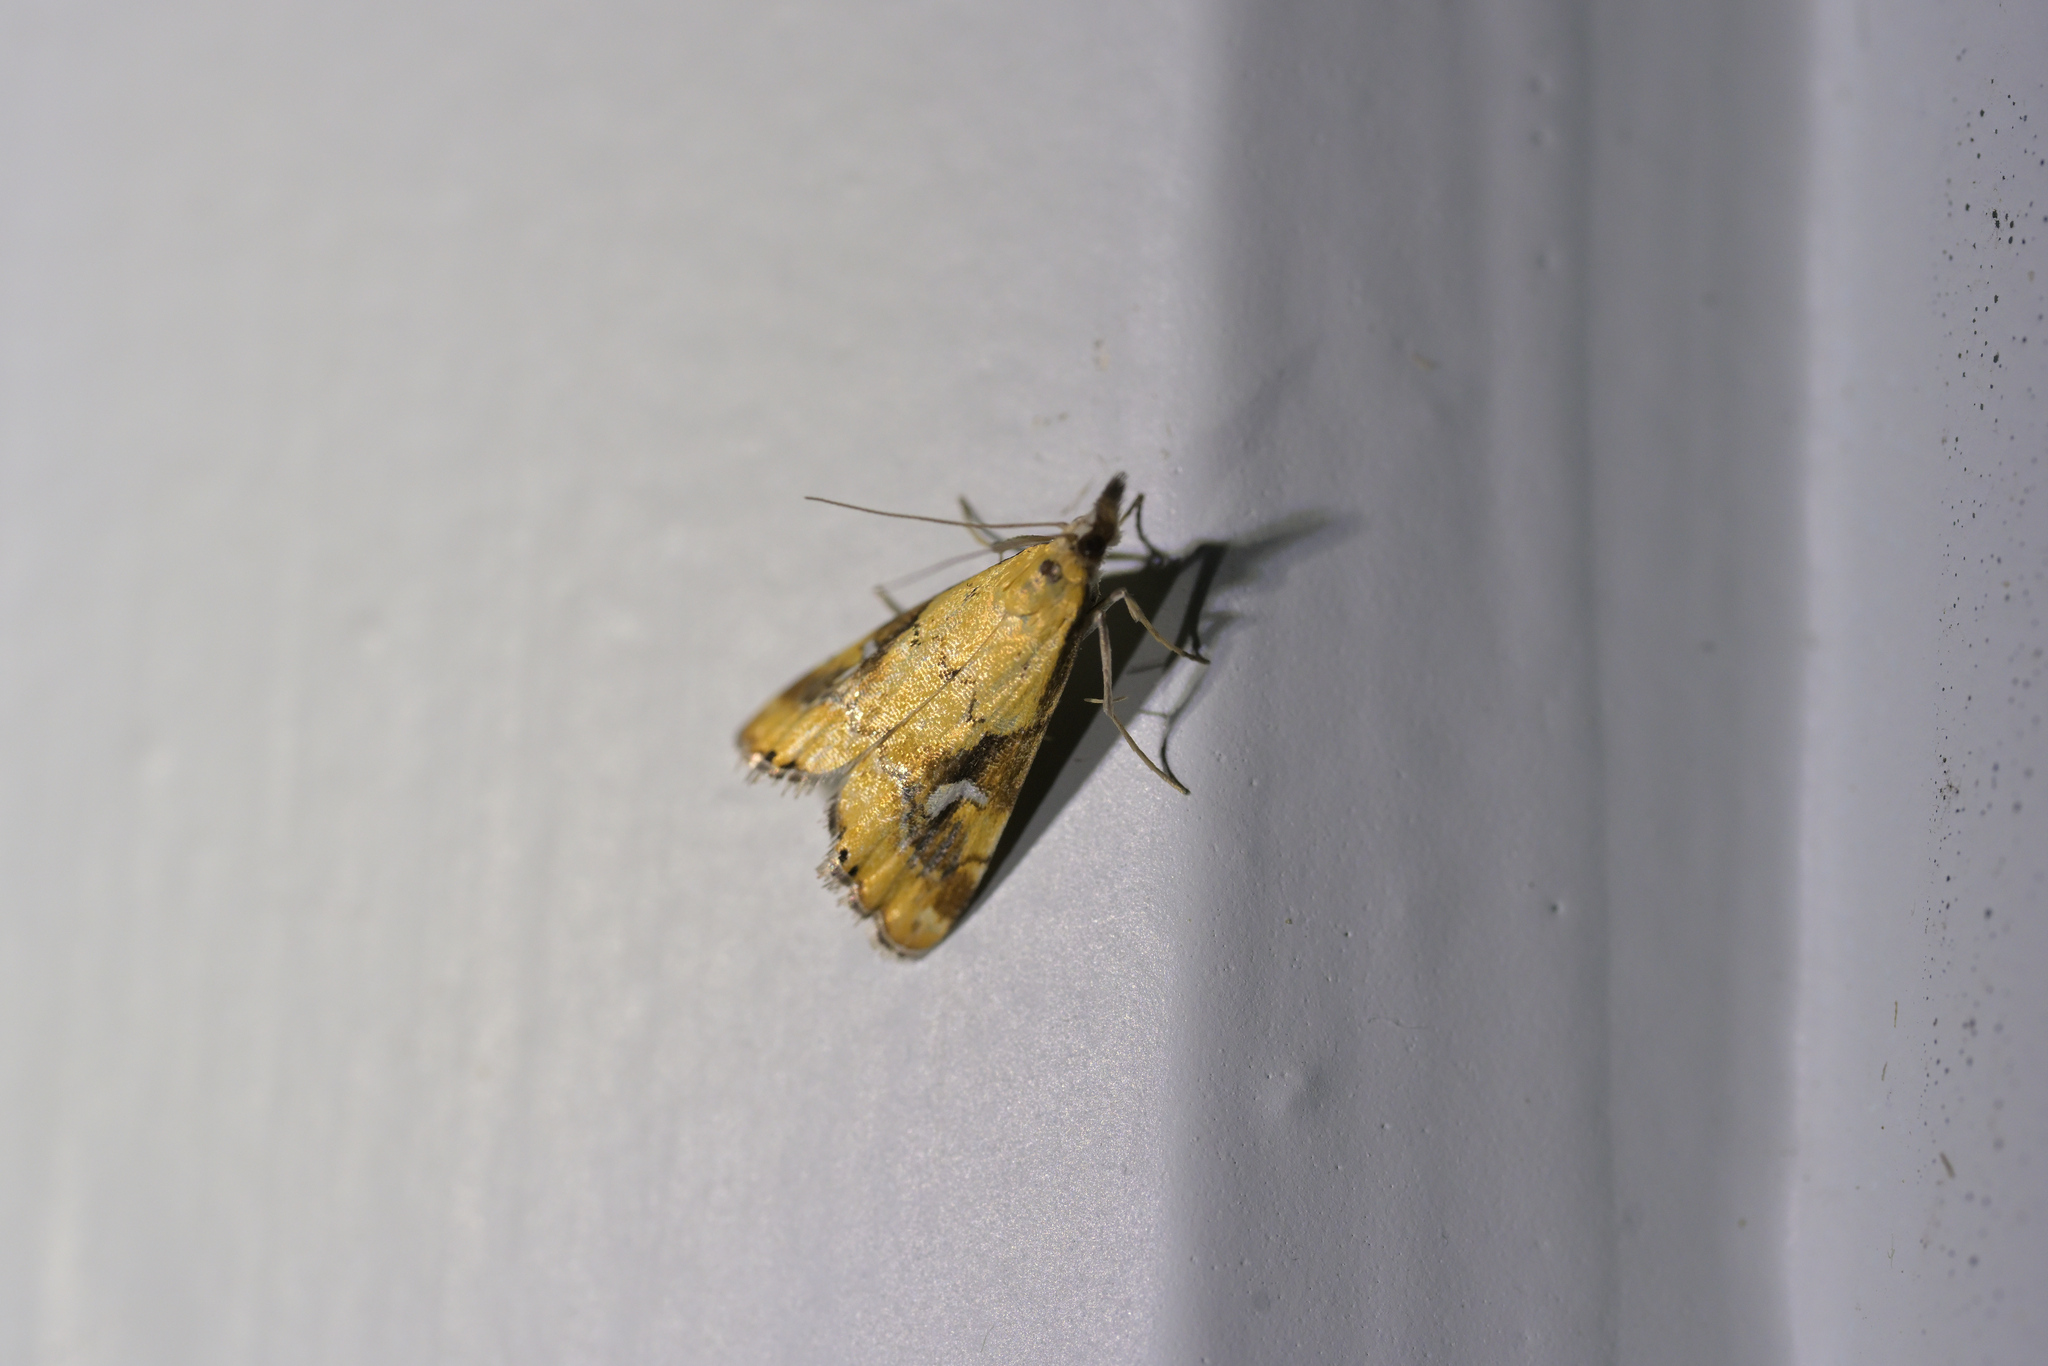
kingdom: Animalia
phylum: Arthropoda
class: Insecta
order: Lepidoptera
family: Crambidae
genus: Glaucocharis
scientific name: Glaucocharis lepidella
